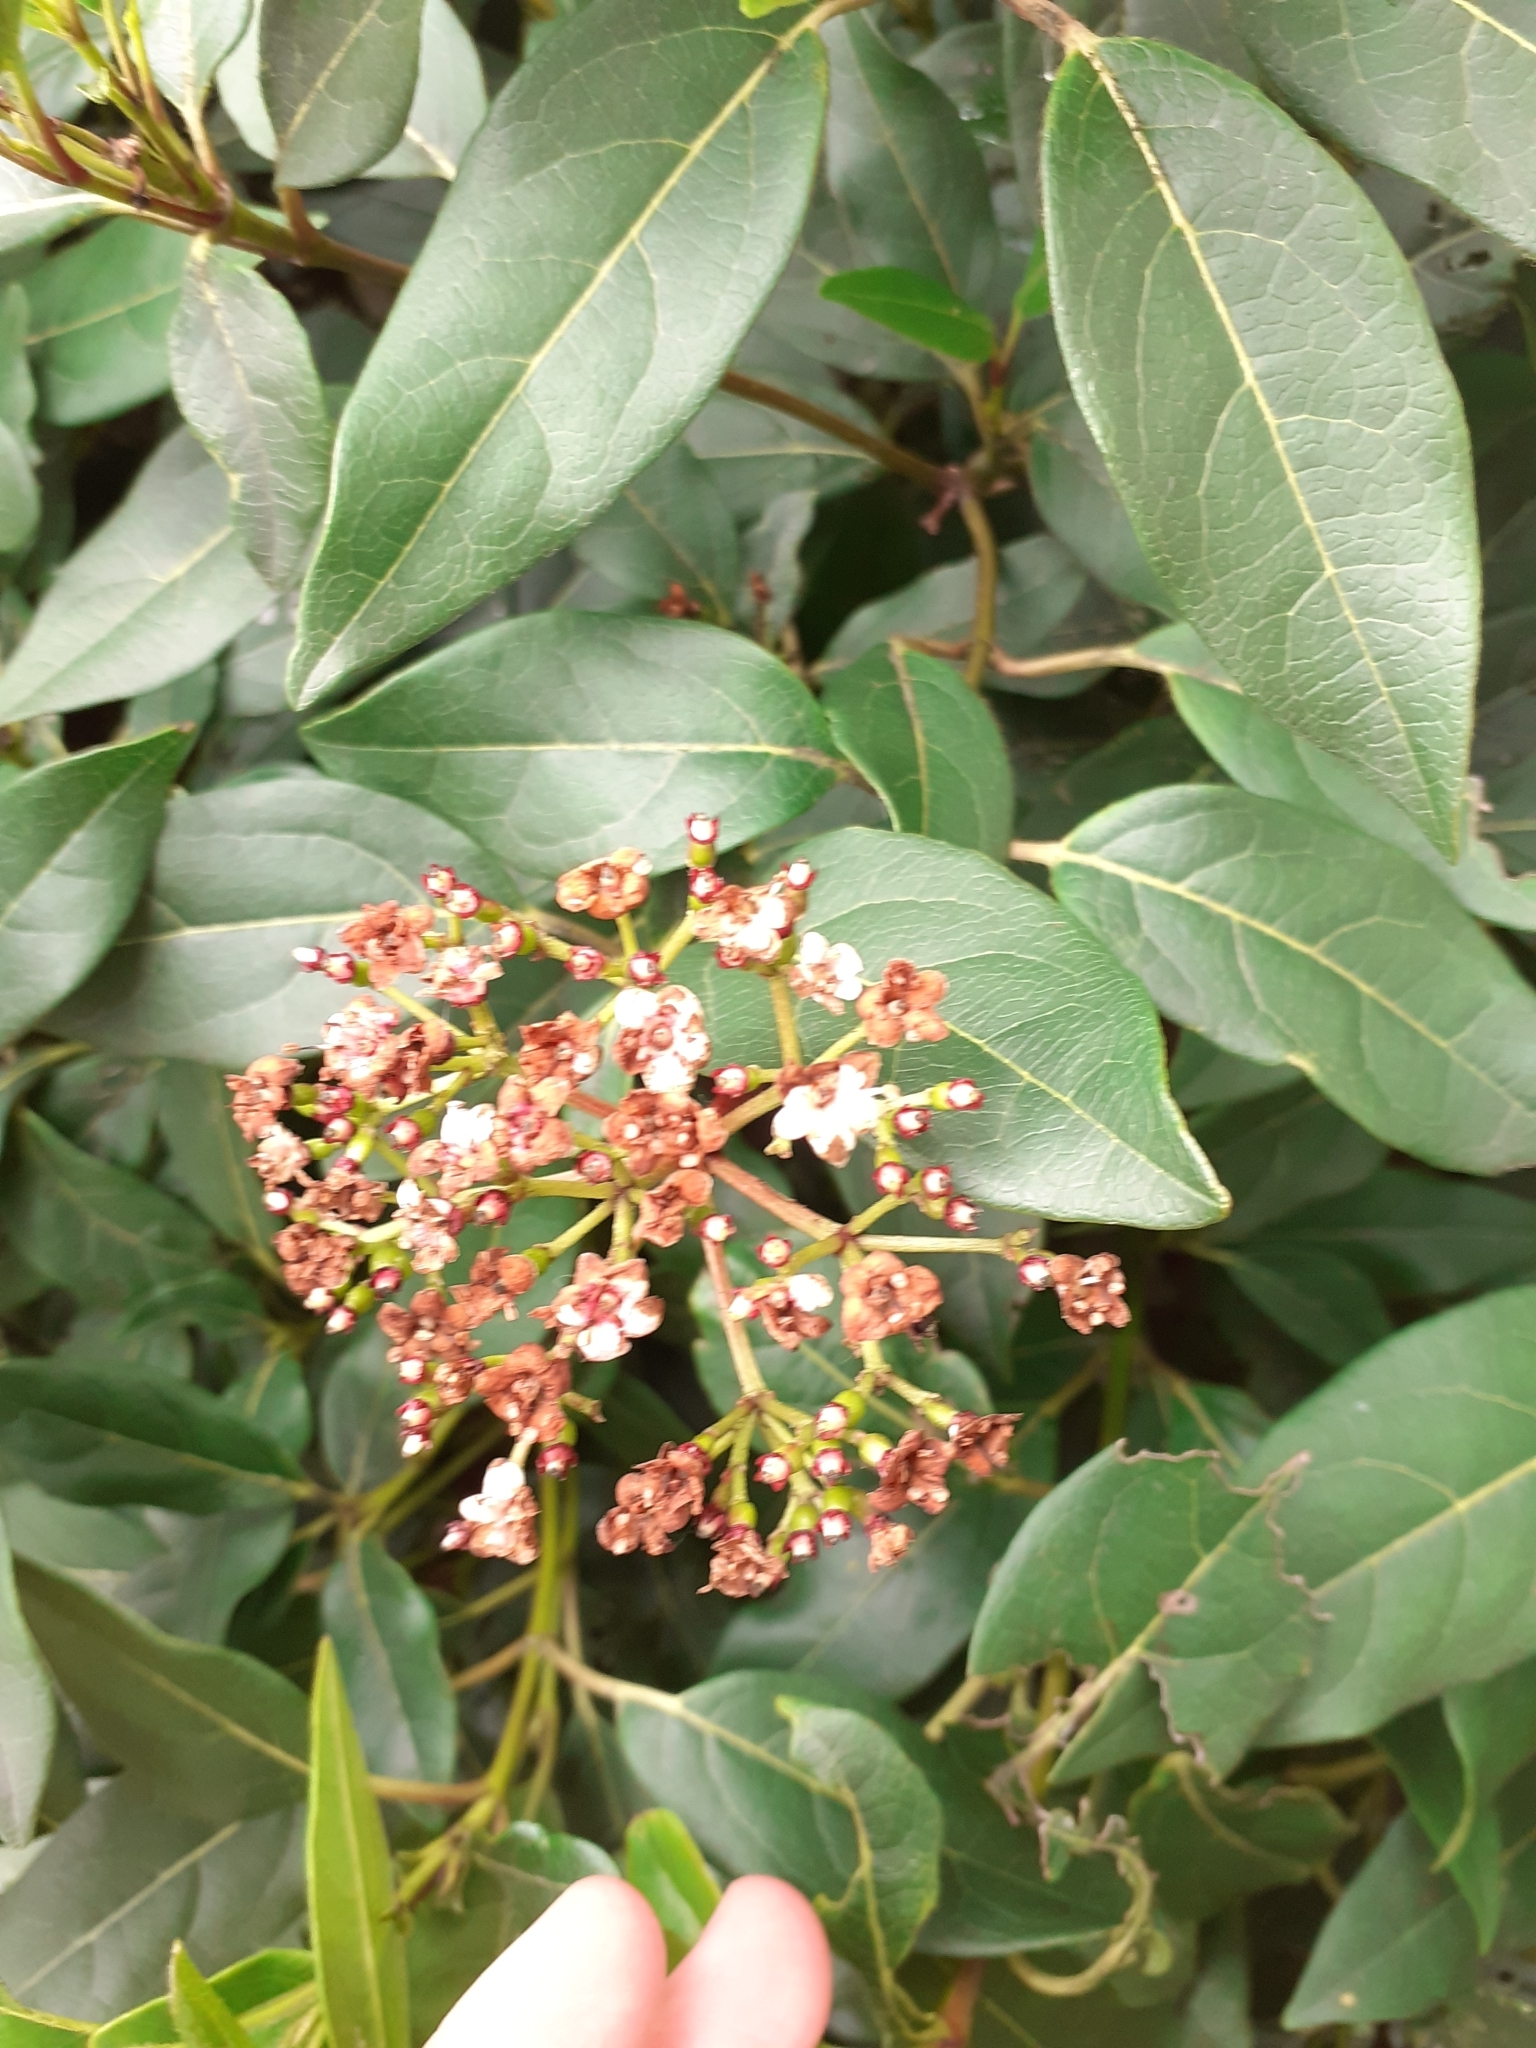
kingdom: Plantae
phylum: Tracheophyta
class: Magnoliopsida
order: Dipsacales
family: Viburnaceae
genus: Viburnum
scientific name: Viburnum tinus
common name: Laurustinus
